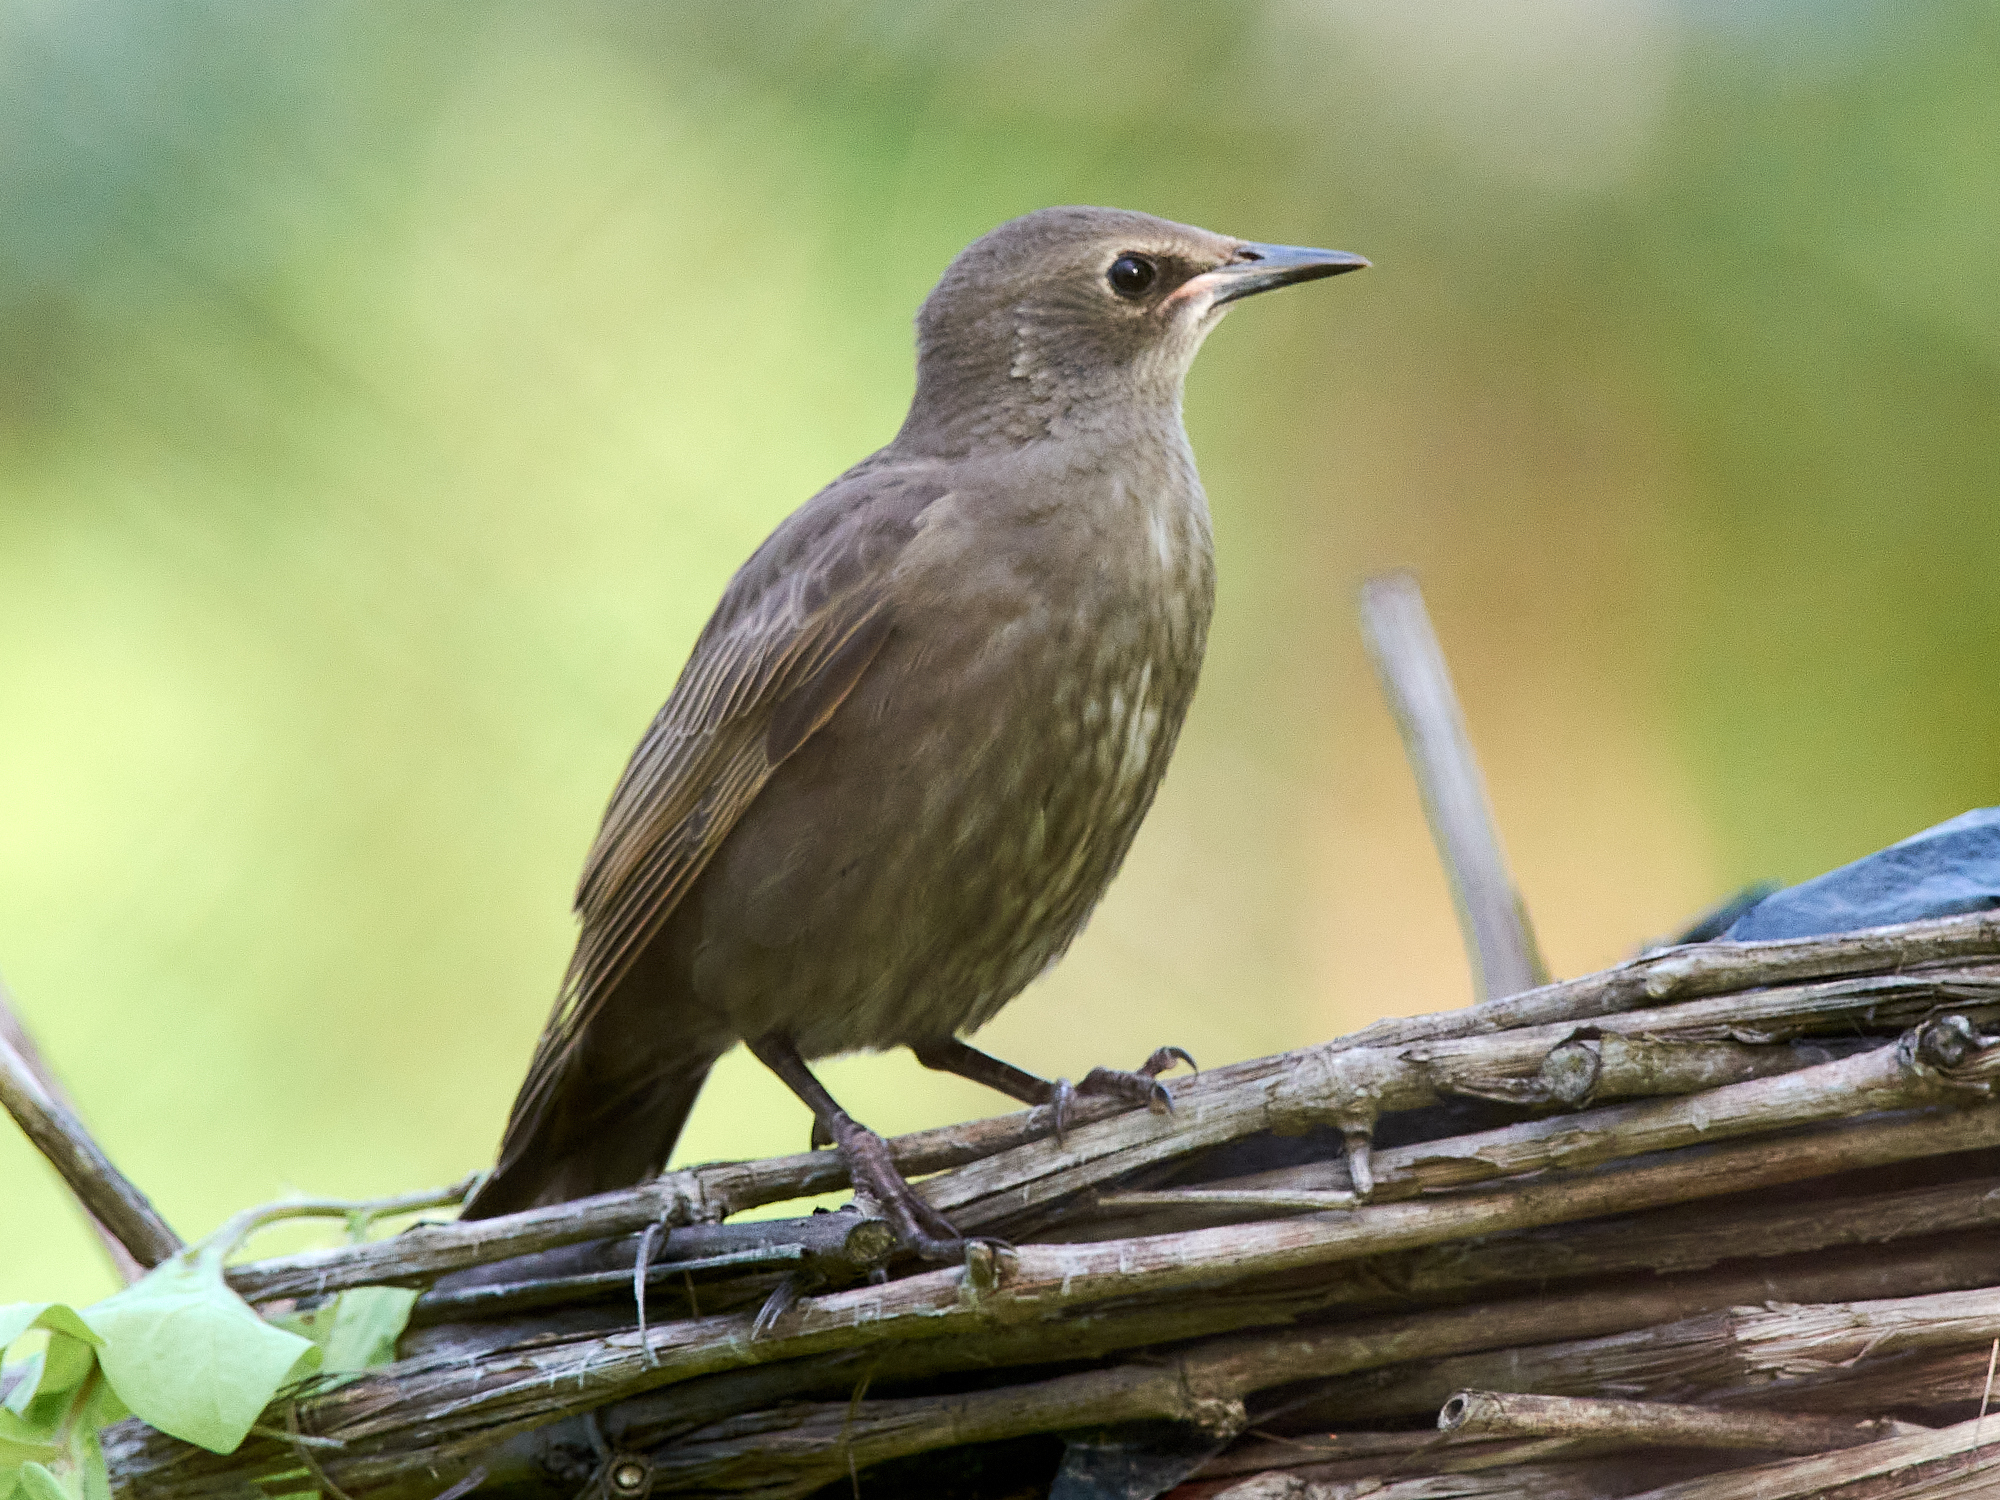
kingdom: Animalia
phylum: Chordata
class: Aves
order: Passeriformes
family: Sturnidae
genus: Sturnus
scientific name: Sturnus vulgaris
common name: Common starling
